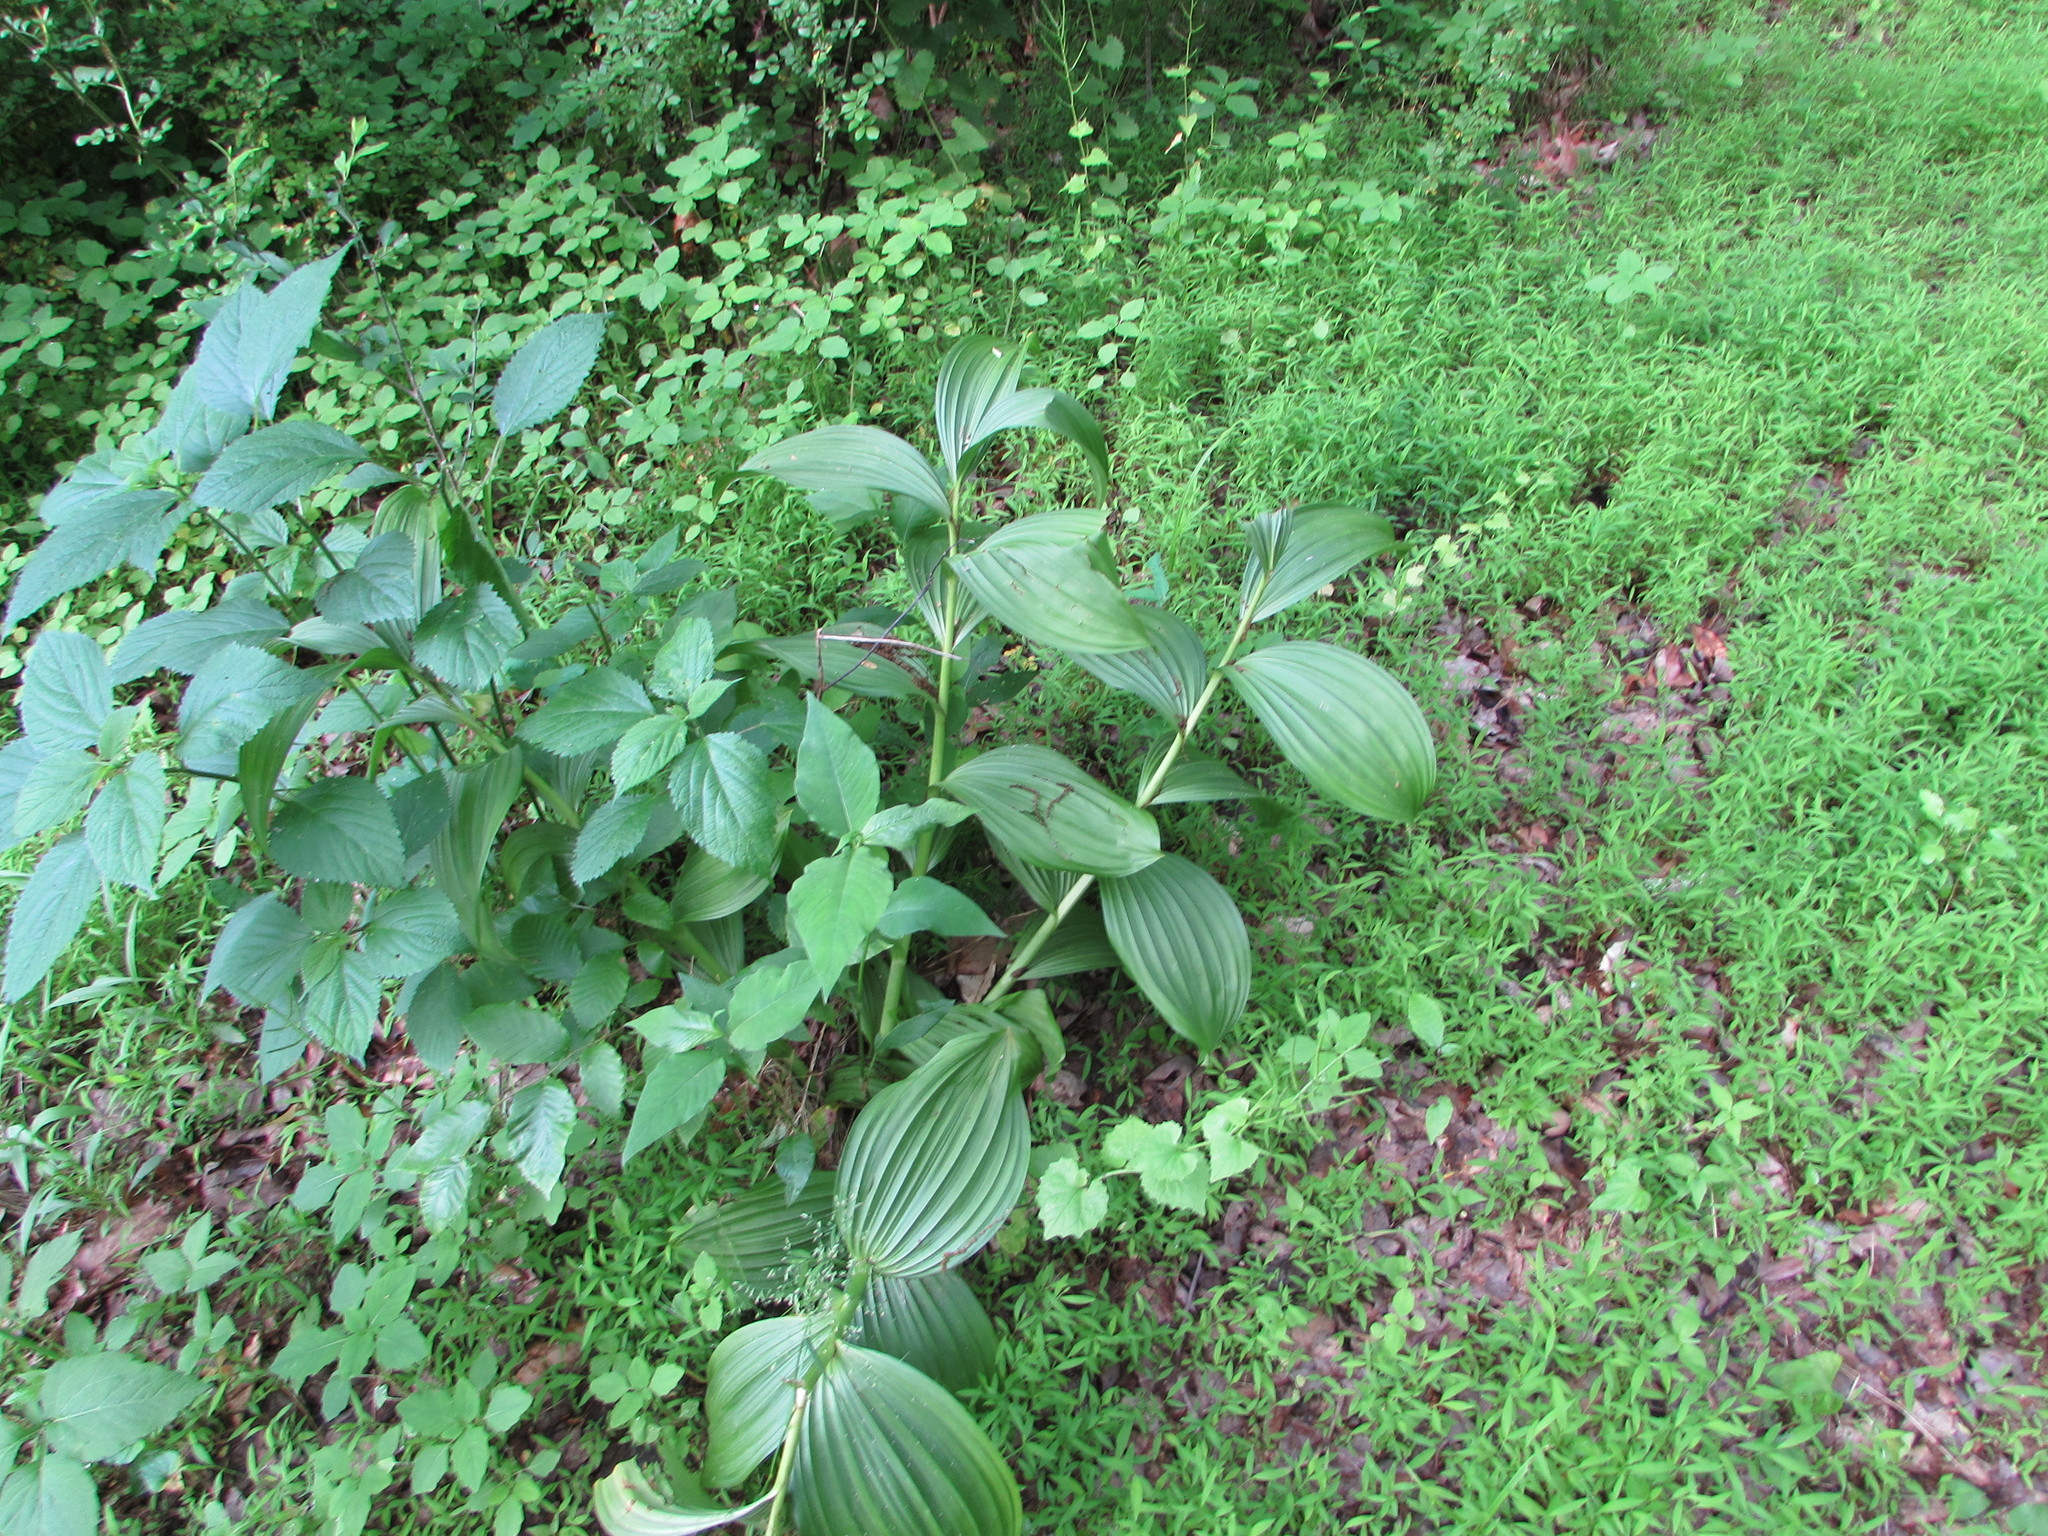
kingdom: Plantae
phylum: Tracheophyta
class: Liliopsida
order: Liliales
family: Melanthiaceae
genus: Veratrum
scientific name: Veratrum viride
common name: American false hellebore
